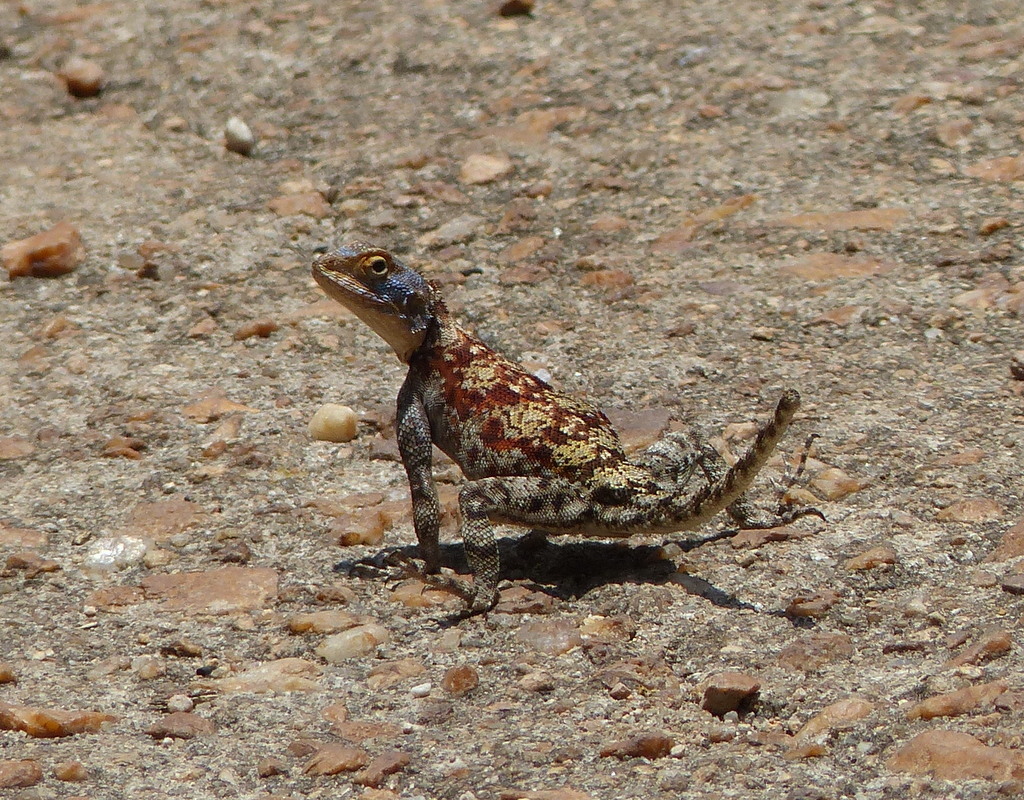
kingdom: Animalia
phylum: Chordata
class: Squamata
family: Agamidae
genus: Agama
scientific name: Agama kirkii
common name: Kirk's rock agama
